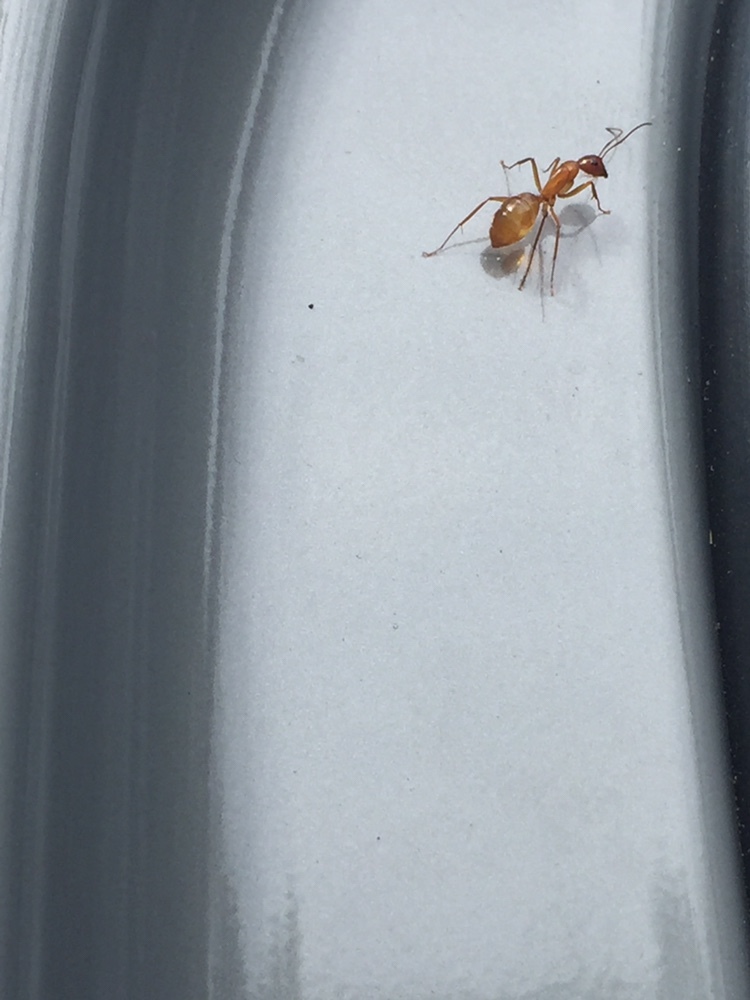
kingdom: Animalia
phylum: Arthropoda
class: Insecta
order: Hymenoptera
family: Formicidae
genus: Camponotus
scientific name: Camponotus castaneus
